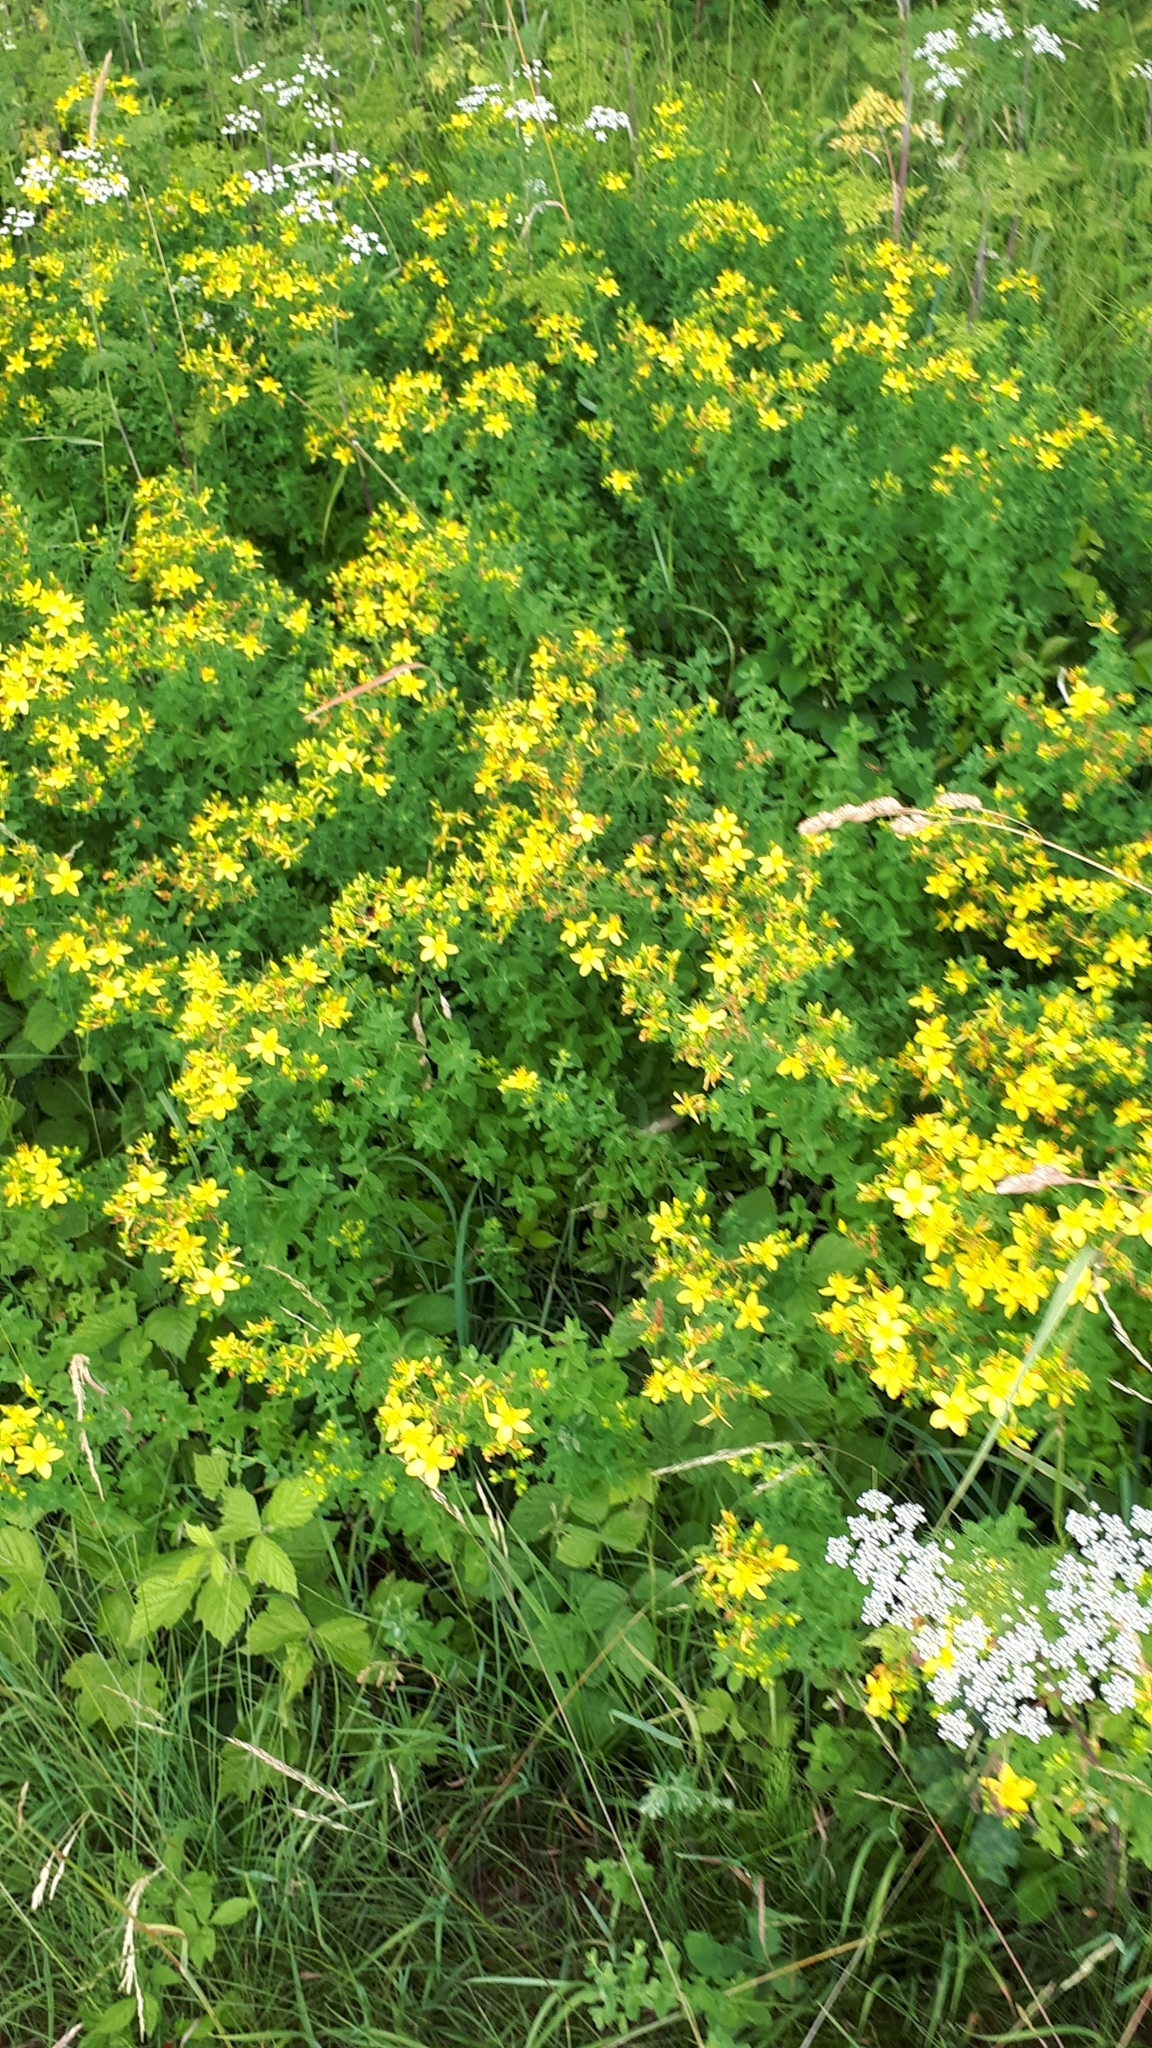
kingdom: Plantae
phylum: Tracheophyta
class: Magnoliopsida
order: Malpighiales
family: Hypericaceae
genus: Hypericum
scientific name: Hypericum perforatum
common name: Common st. johnswort
